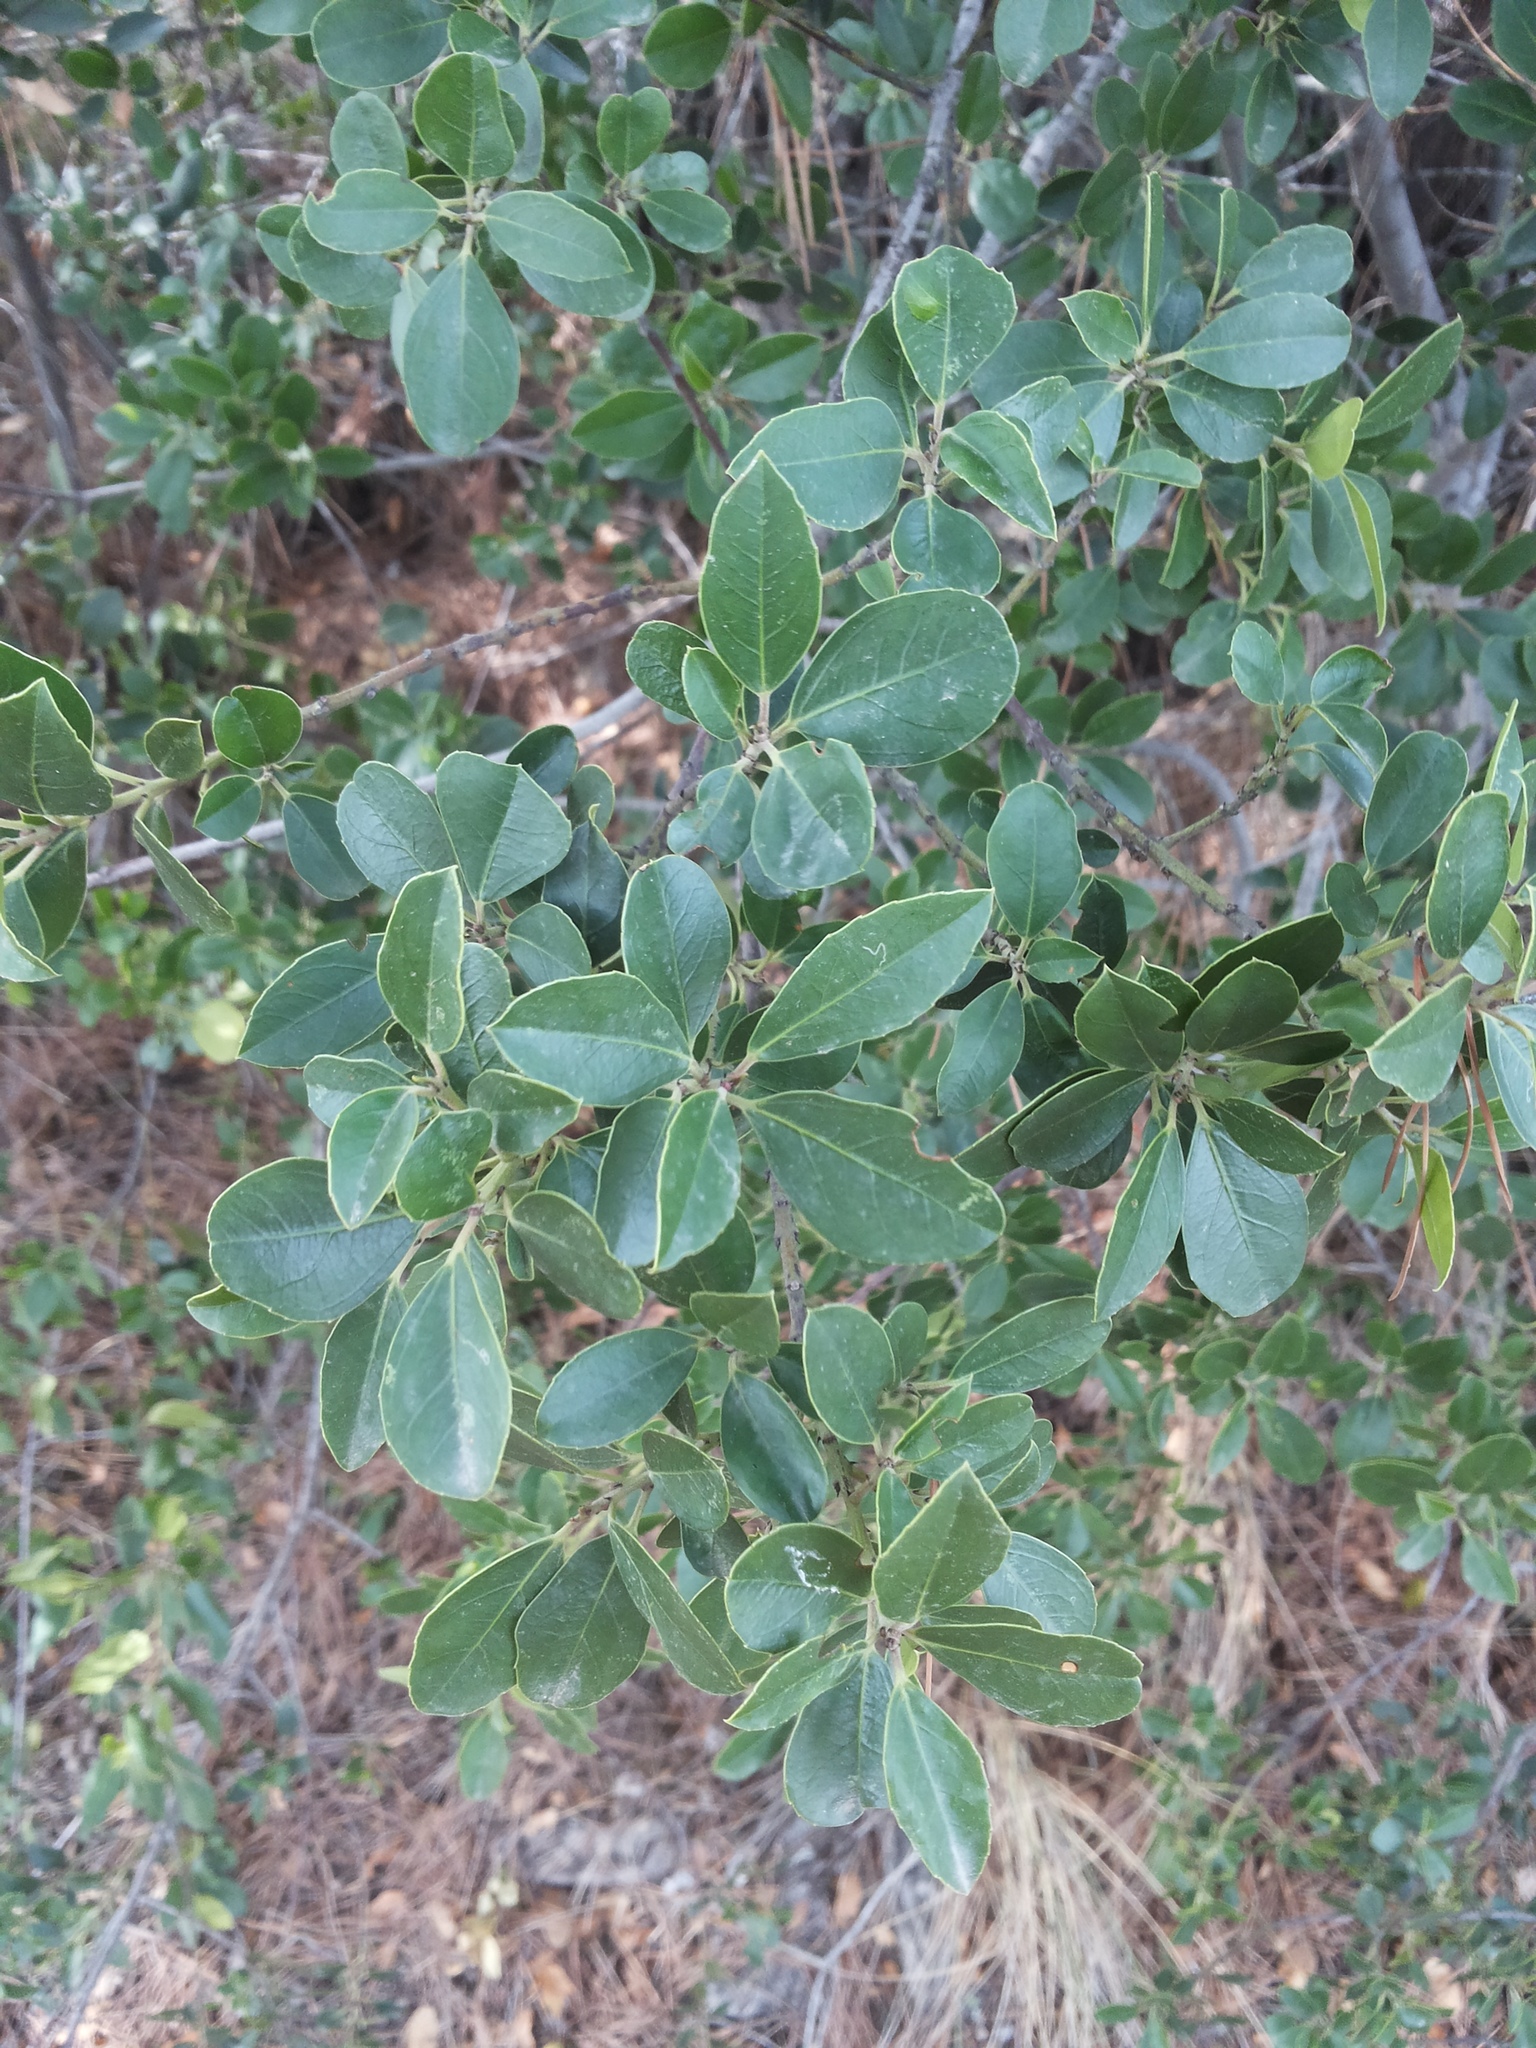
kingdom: Plantae
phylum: Tracheophyta
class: Magnoliopsida
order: Lamiales
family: Oleaceae
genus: Phillyrea
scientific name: Phillyrea latifolia
